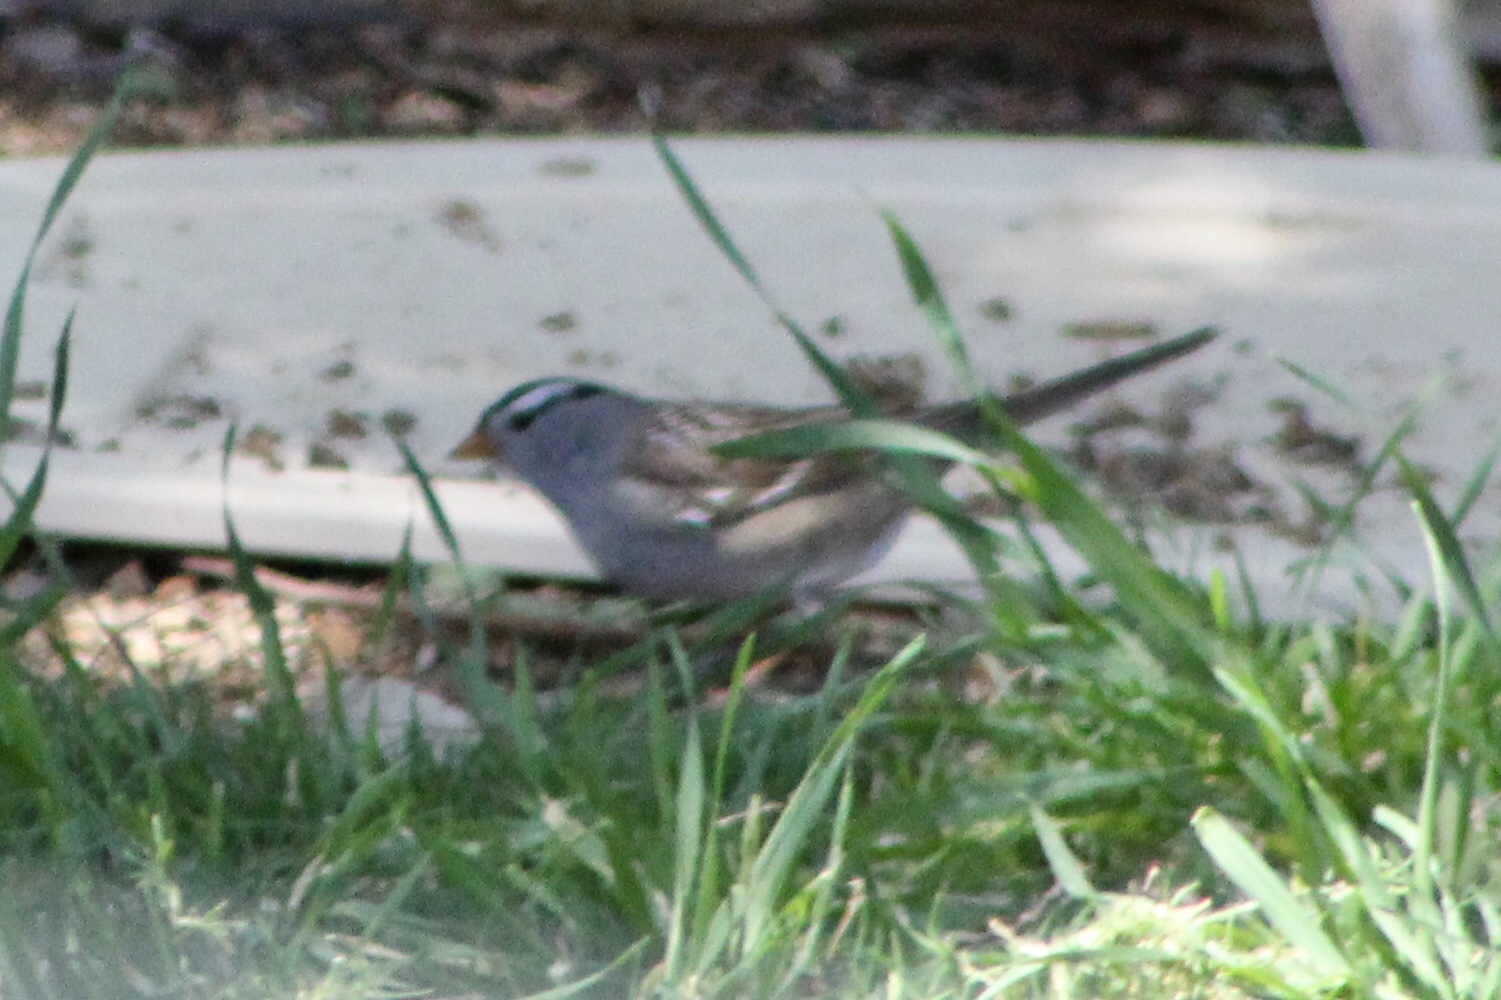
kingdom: Animalia
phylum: Chordata
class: Aves
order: Passeriformes
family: Passerellidae
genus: Zonotrichia
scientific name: Zonotrichia leucophrys
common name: White-crowned sparrow
